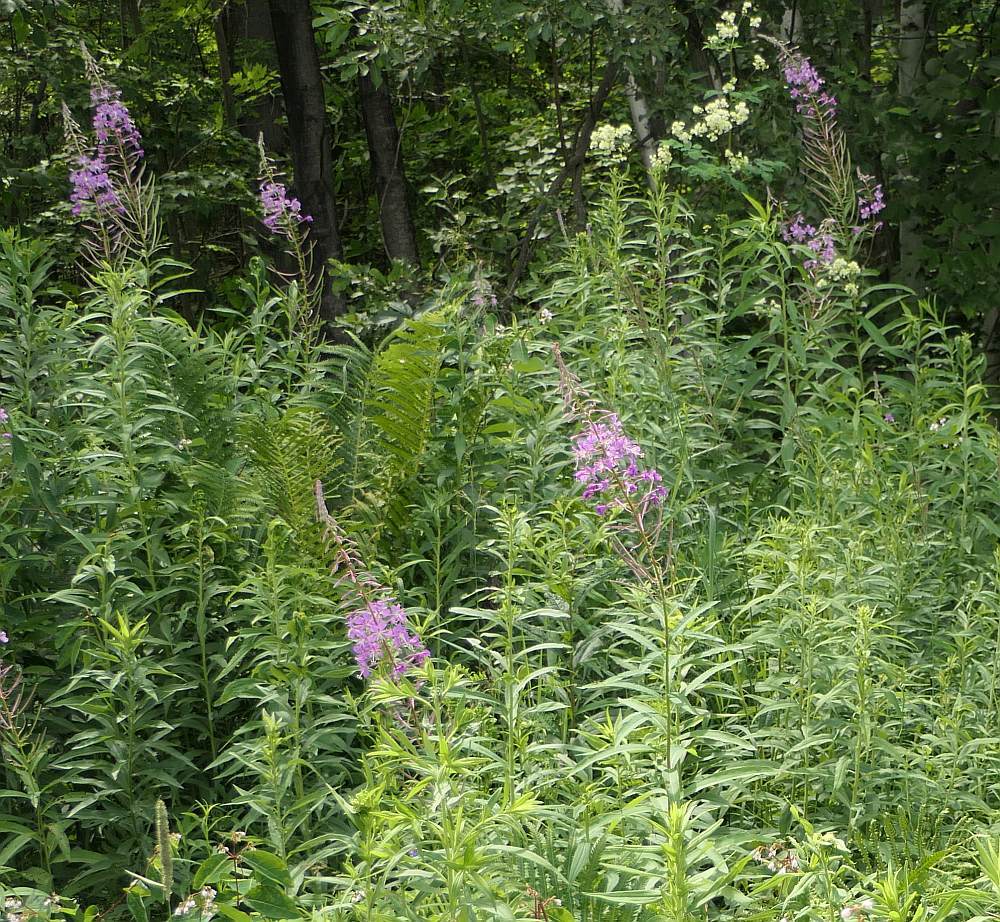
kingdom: Plantae
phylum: Tracheophyta
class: Magnoliopsida
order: Myrtales
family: Onagraceae
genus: Chamaenerion
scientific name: Chamaenerion angustifolium
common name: Fireweed
